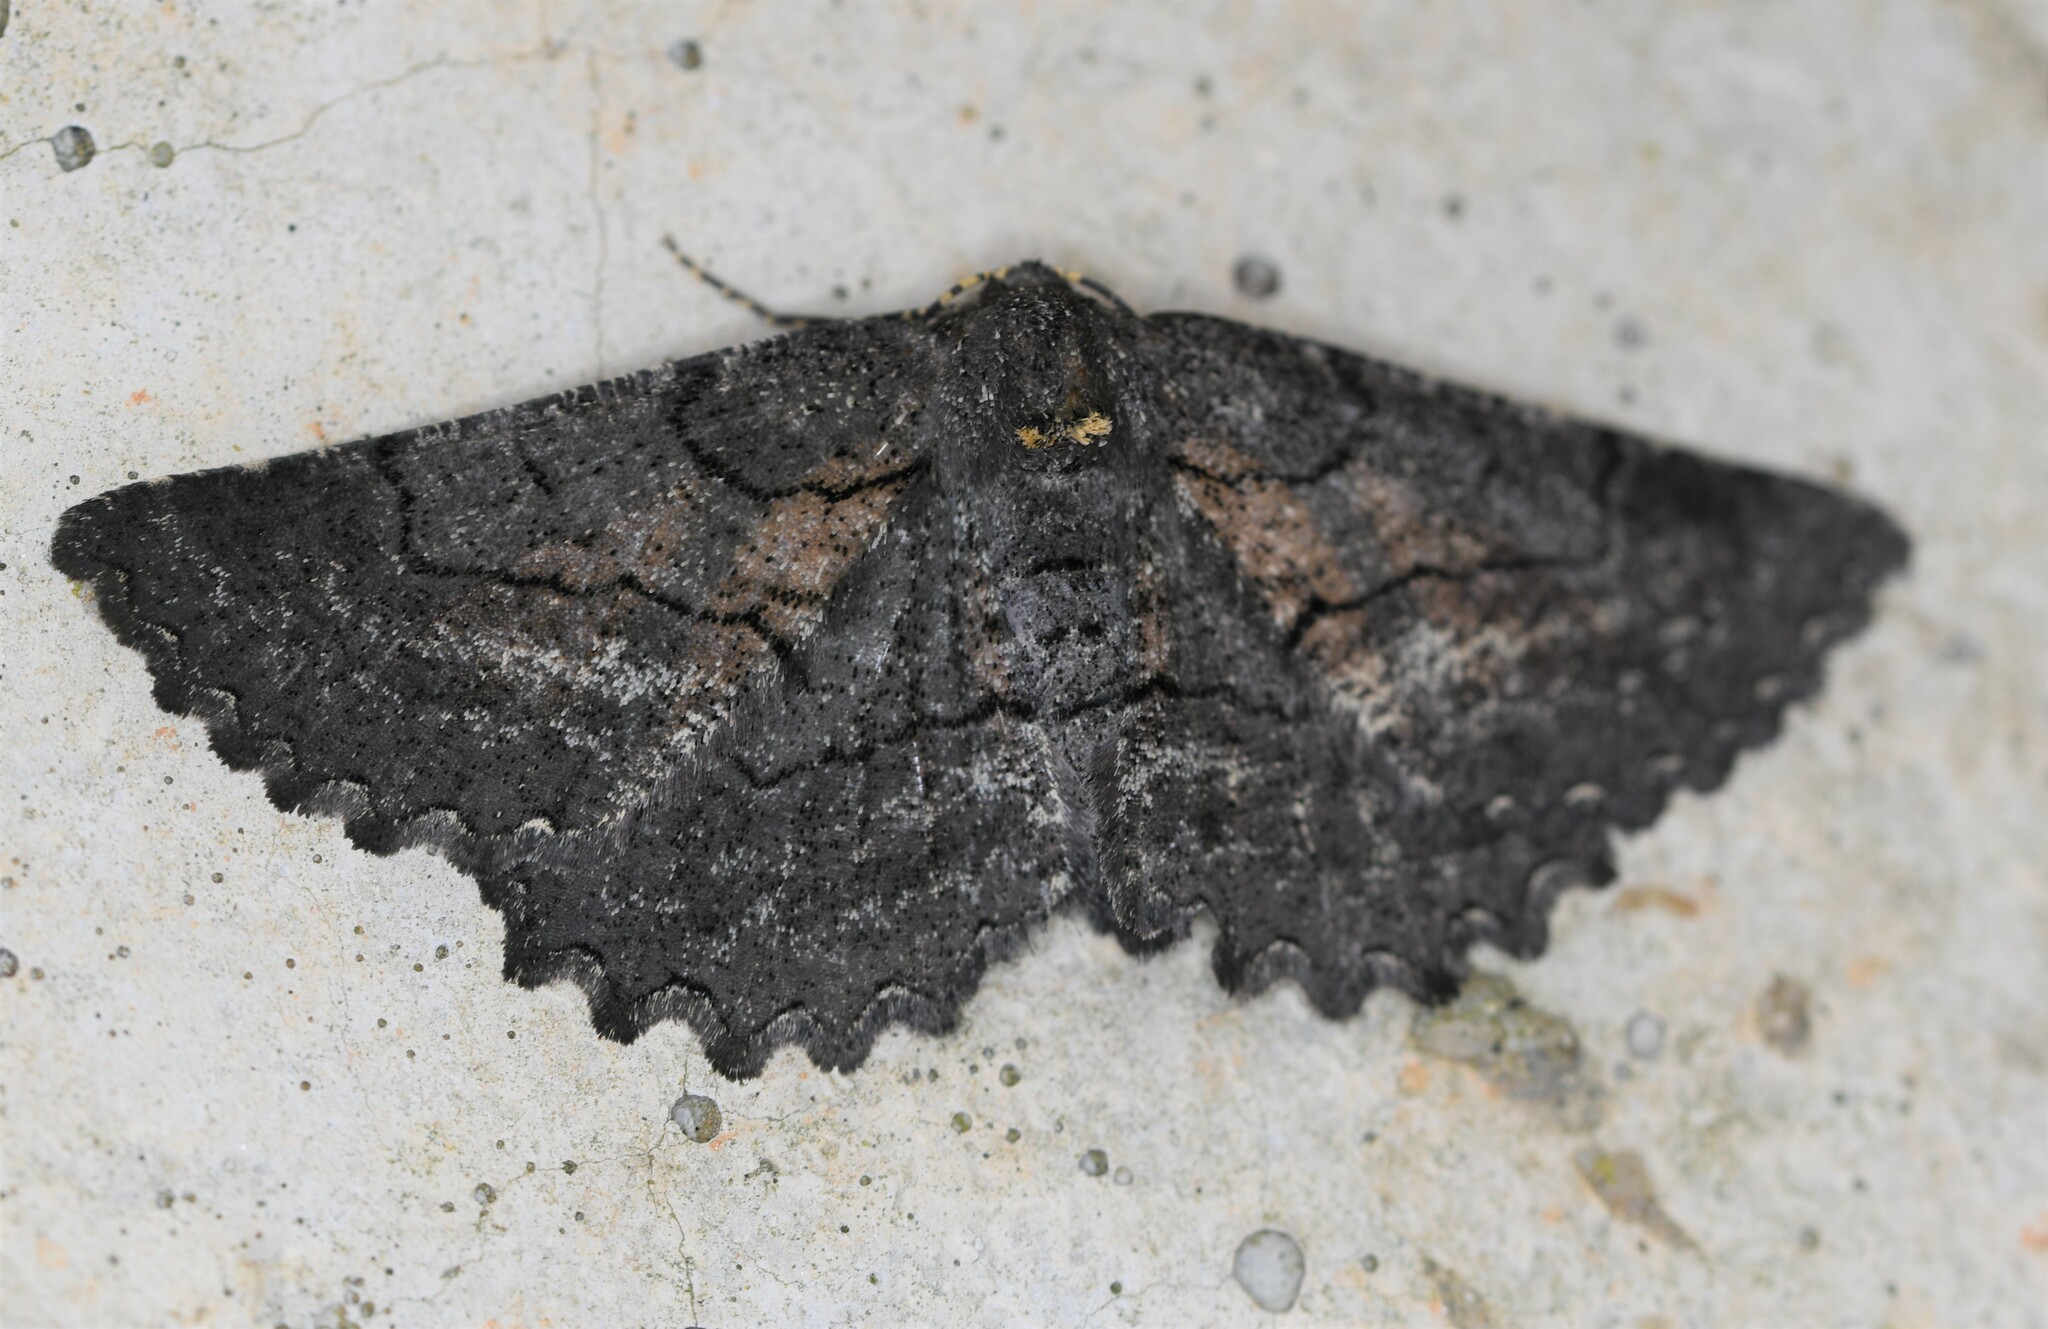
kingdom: Animalia
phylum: Arthropoda
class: Insecta
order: Lepidoptera
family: Geometridae
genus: Nychiodes
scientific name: Nychiodes andalusiaria
